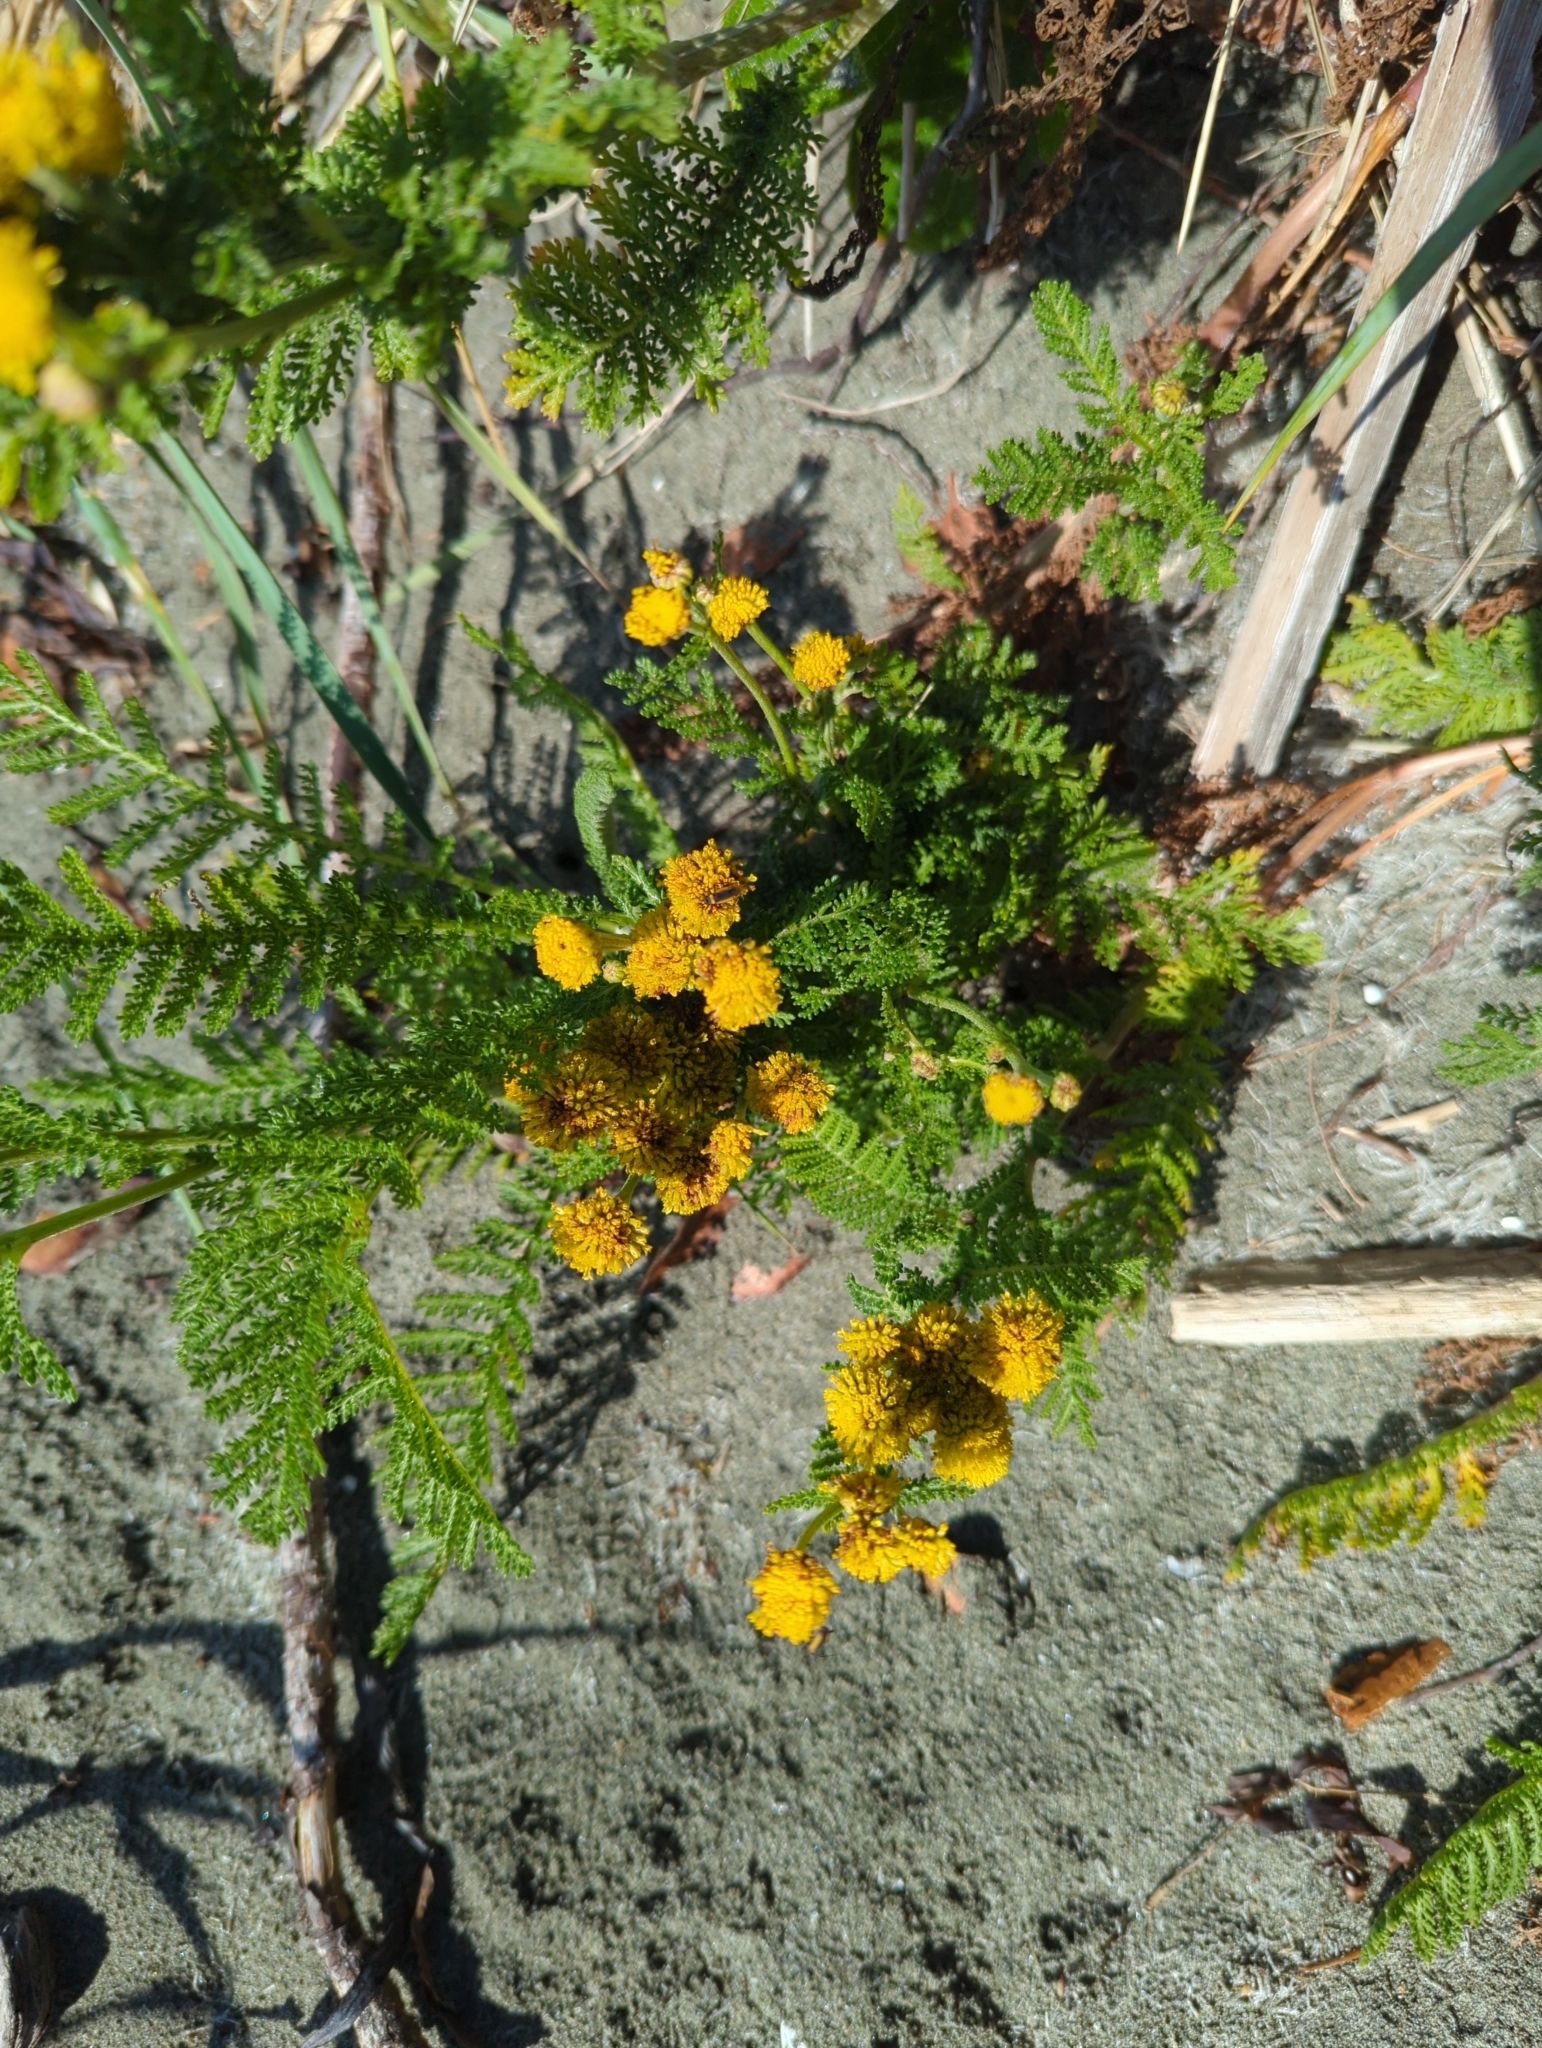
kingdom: Plantae
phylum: Tracheophyta
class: Magnoliopsida
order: Asterales
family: Asteraceae
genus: Tanacetum
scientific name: Tanacetum bipinnatum
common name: Dwarf tansy
